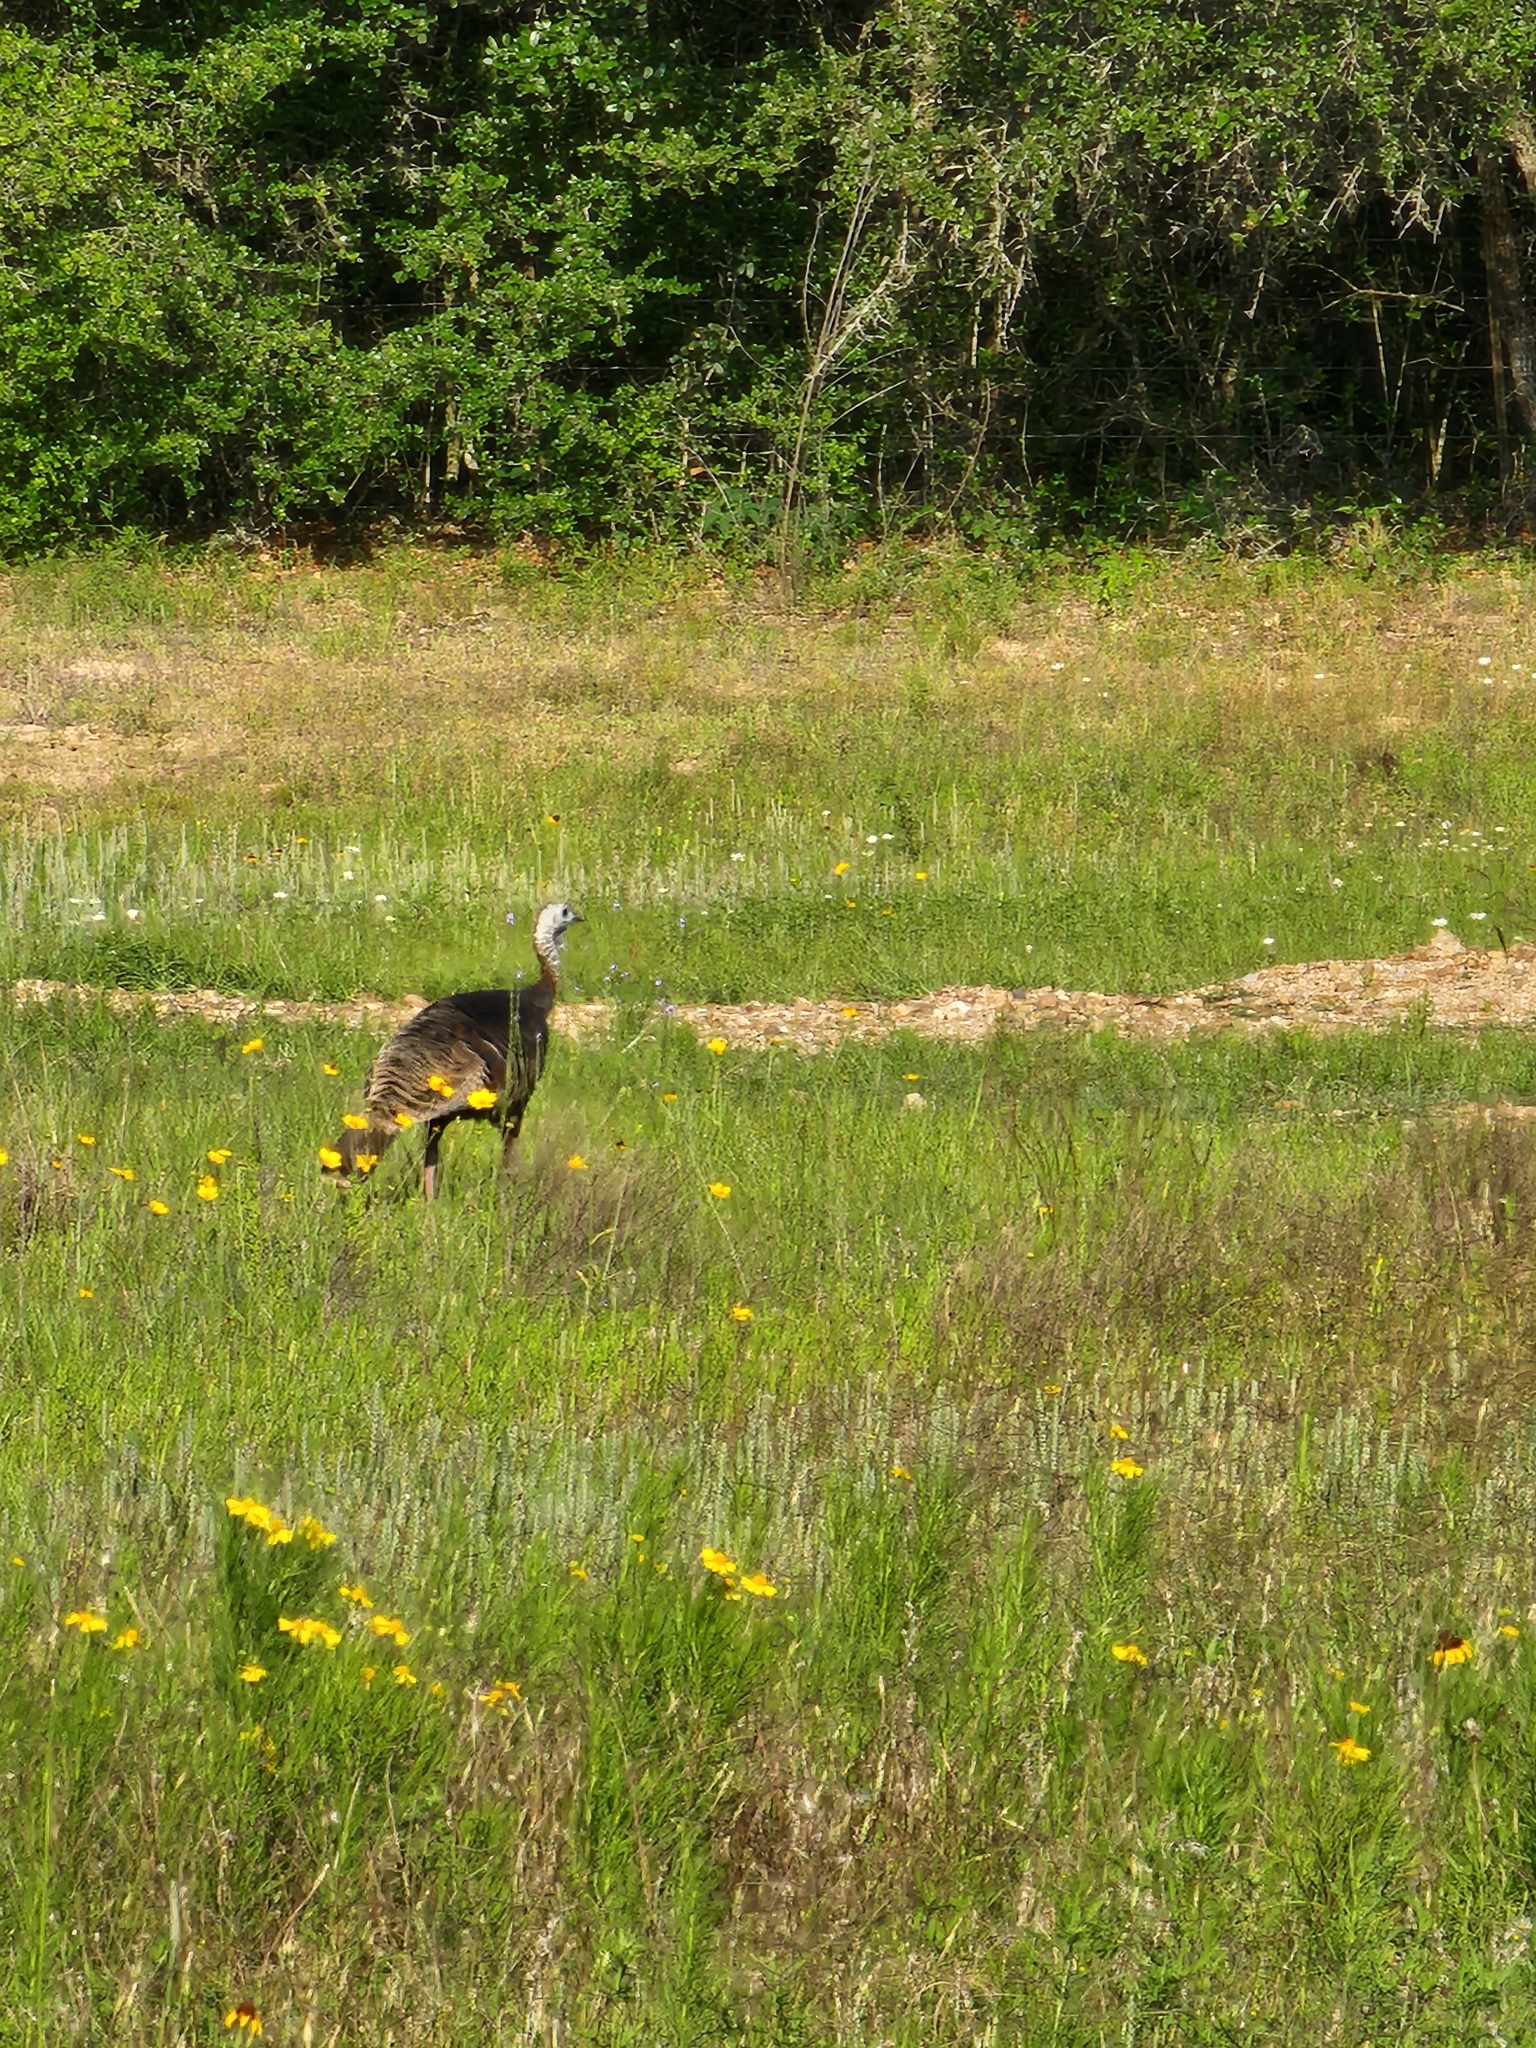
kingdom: Animalia
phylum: Chordata
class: Aves
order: Galliformes
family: Phasianidae
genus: Meleagris
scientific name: Meleagris gallopavo
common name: Wild turkey
